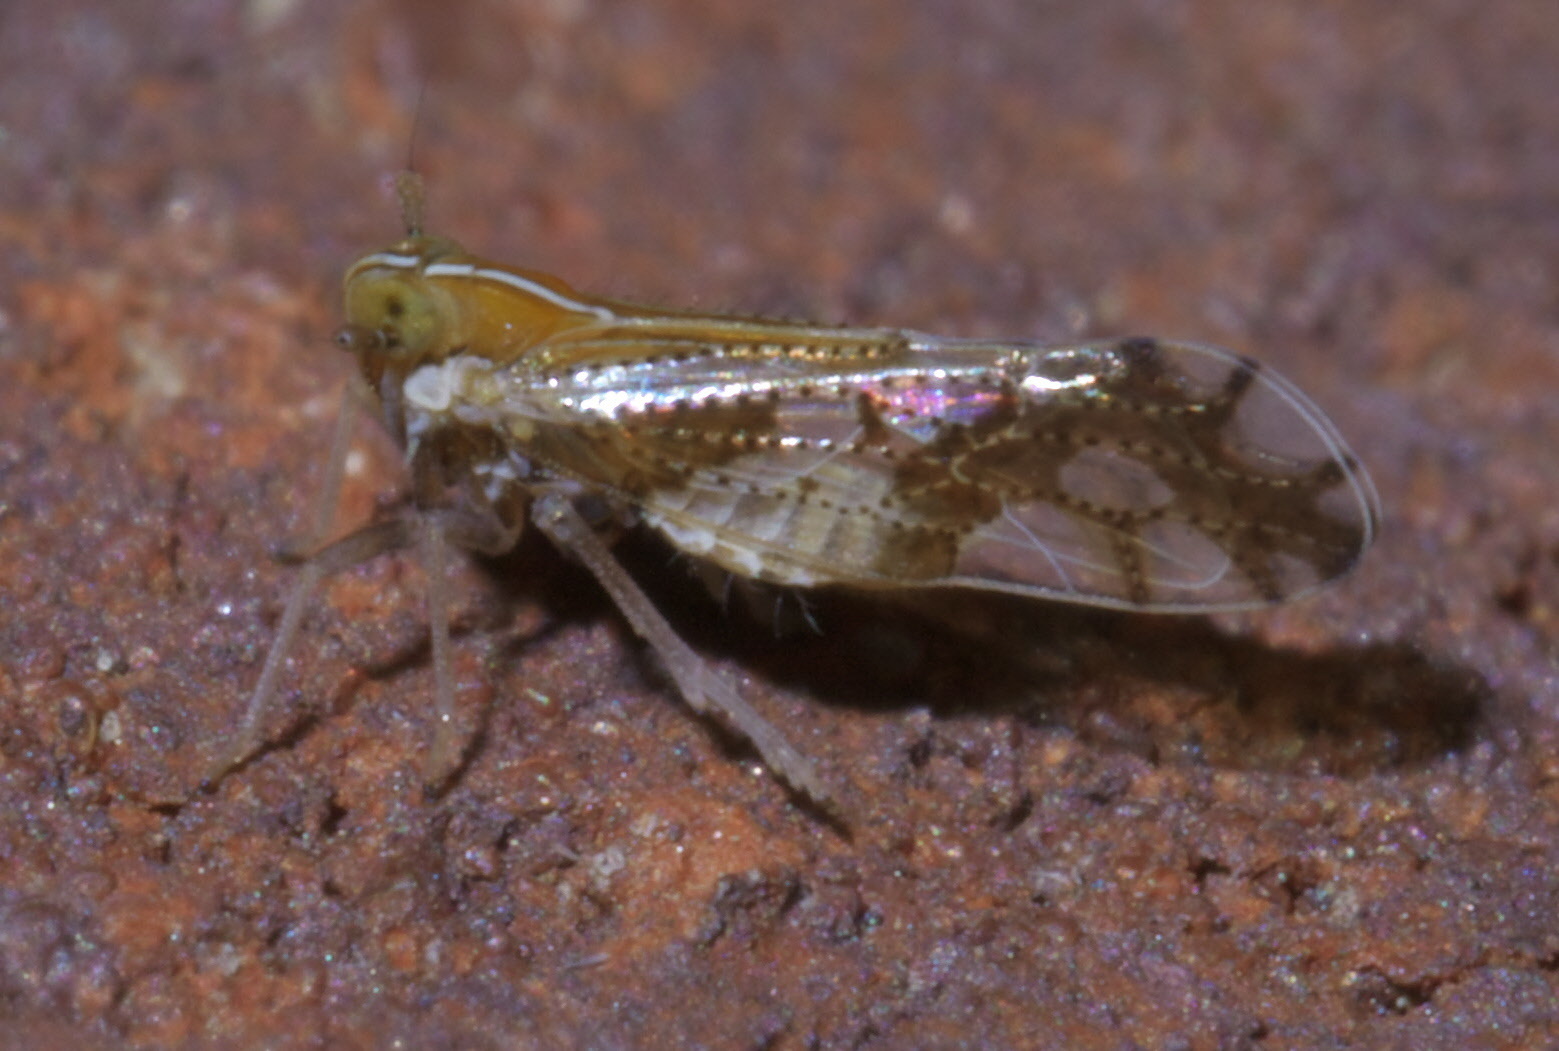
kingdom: Animalia
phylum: Arthropoda
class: Insecta
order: Hemiptera
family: Delphacidae
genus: Liburniella
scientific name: Liburniella ornata
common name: Ornate planthopper
